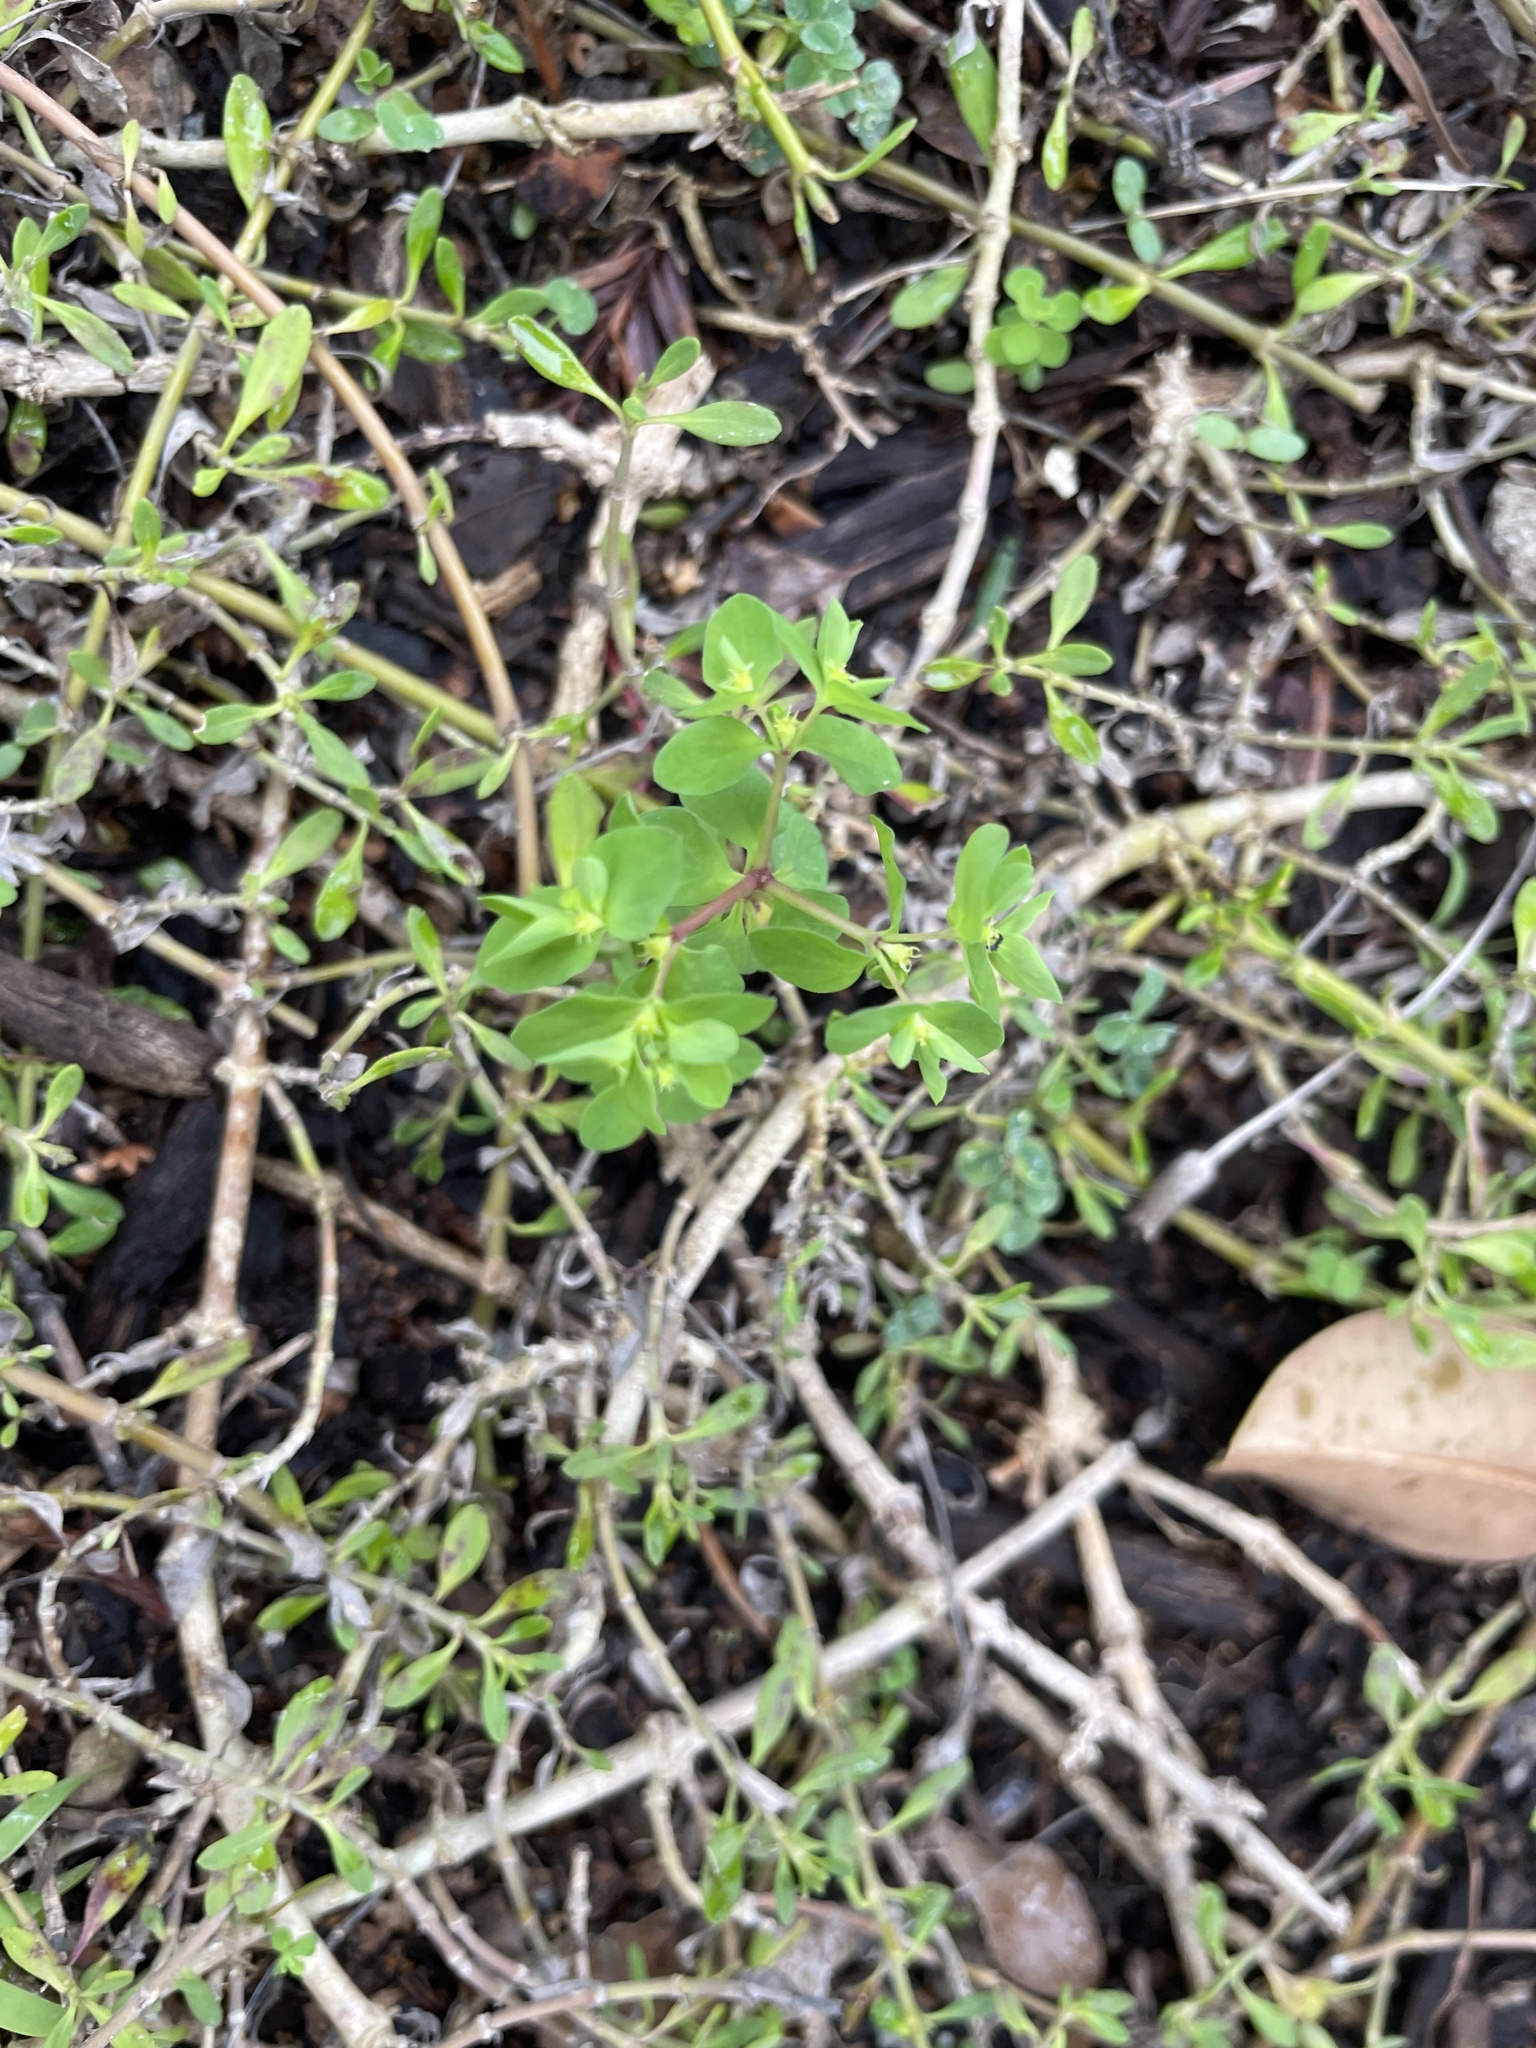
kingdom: Plantae
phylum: Tracheophyta
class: Magnoliopsida
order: Malpighiales
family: Euphorbiaceae
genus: Euphorbia
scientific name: Euphorbia peplus
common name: Petty spurge
